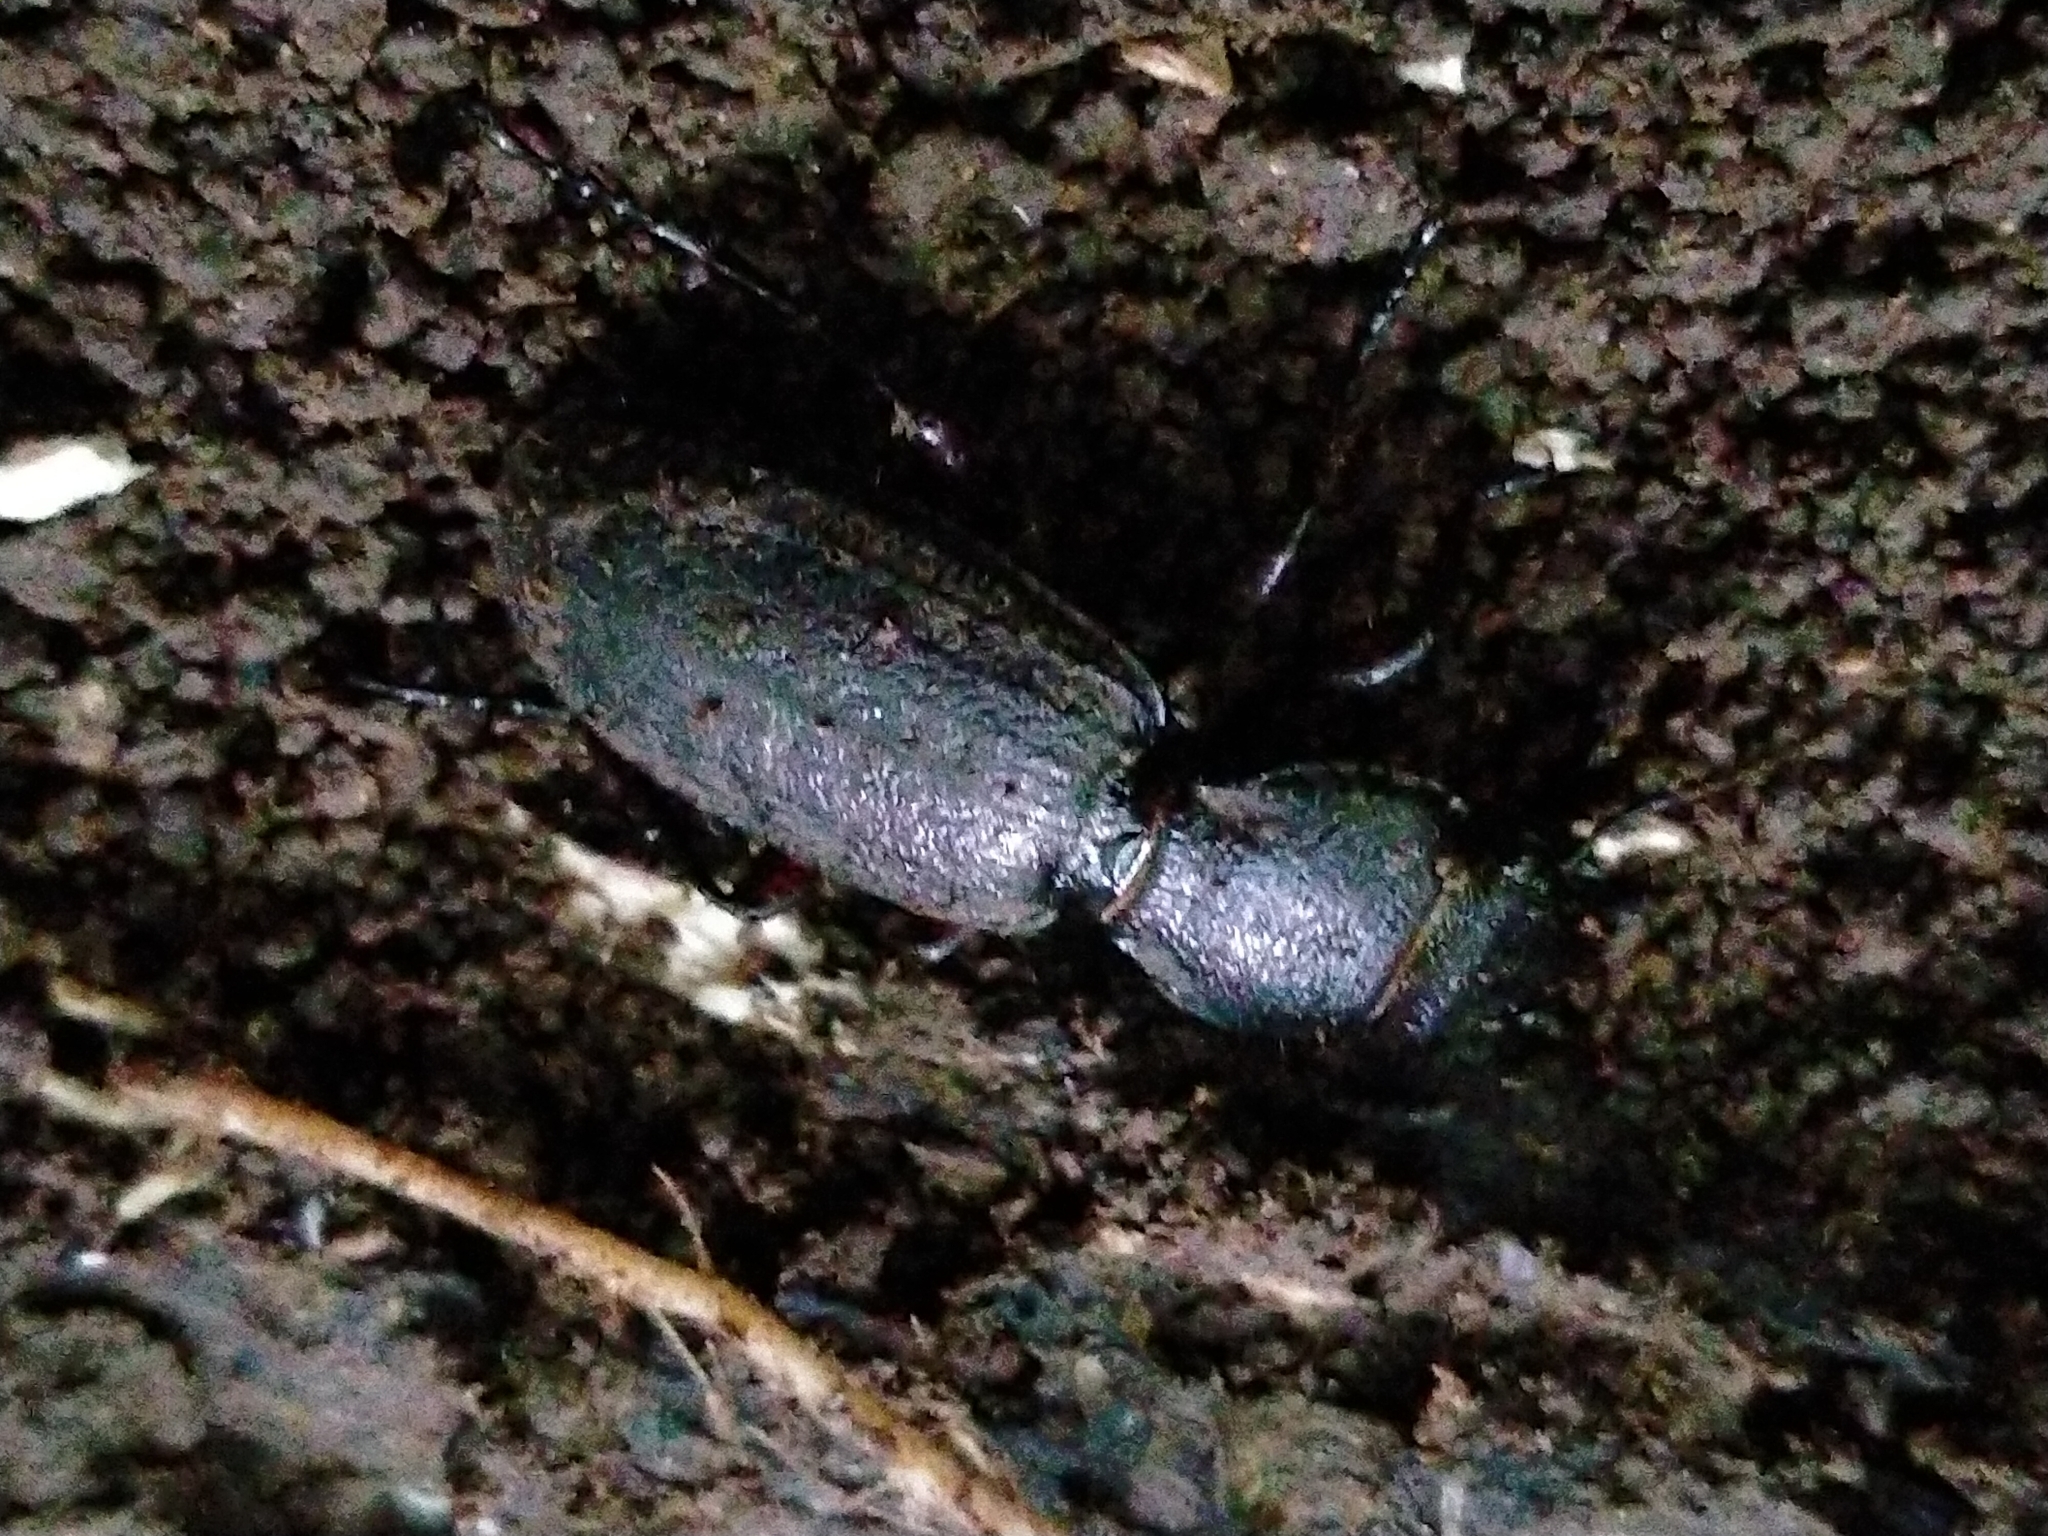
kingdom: Animalia
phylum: Arthropoda
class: Insecta
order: Coleoptera
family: Carabidae
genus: Mecodema
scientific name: Mecodema sculpturatum
